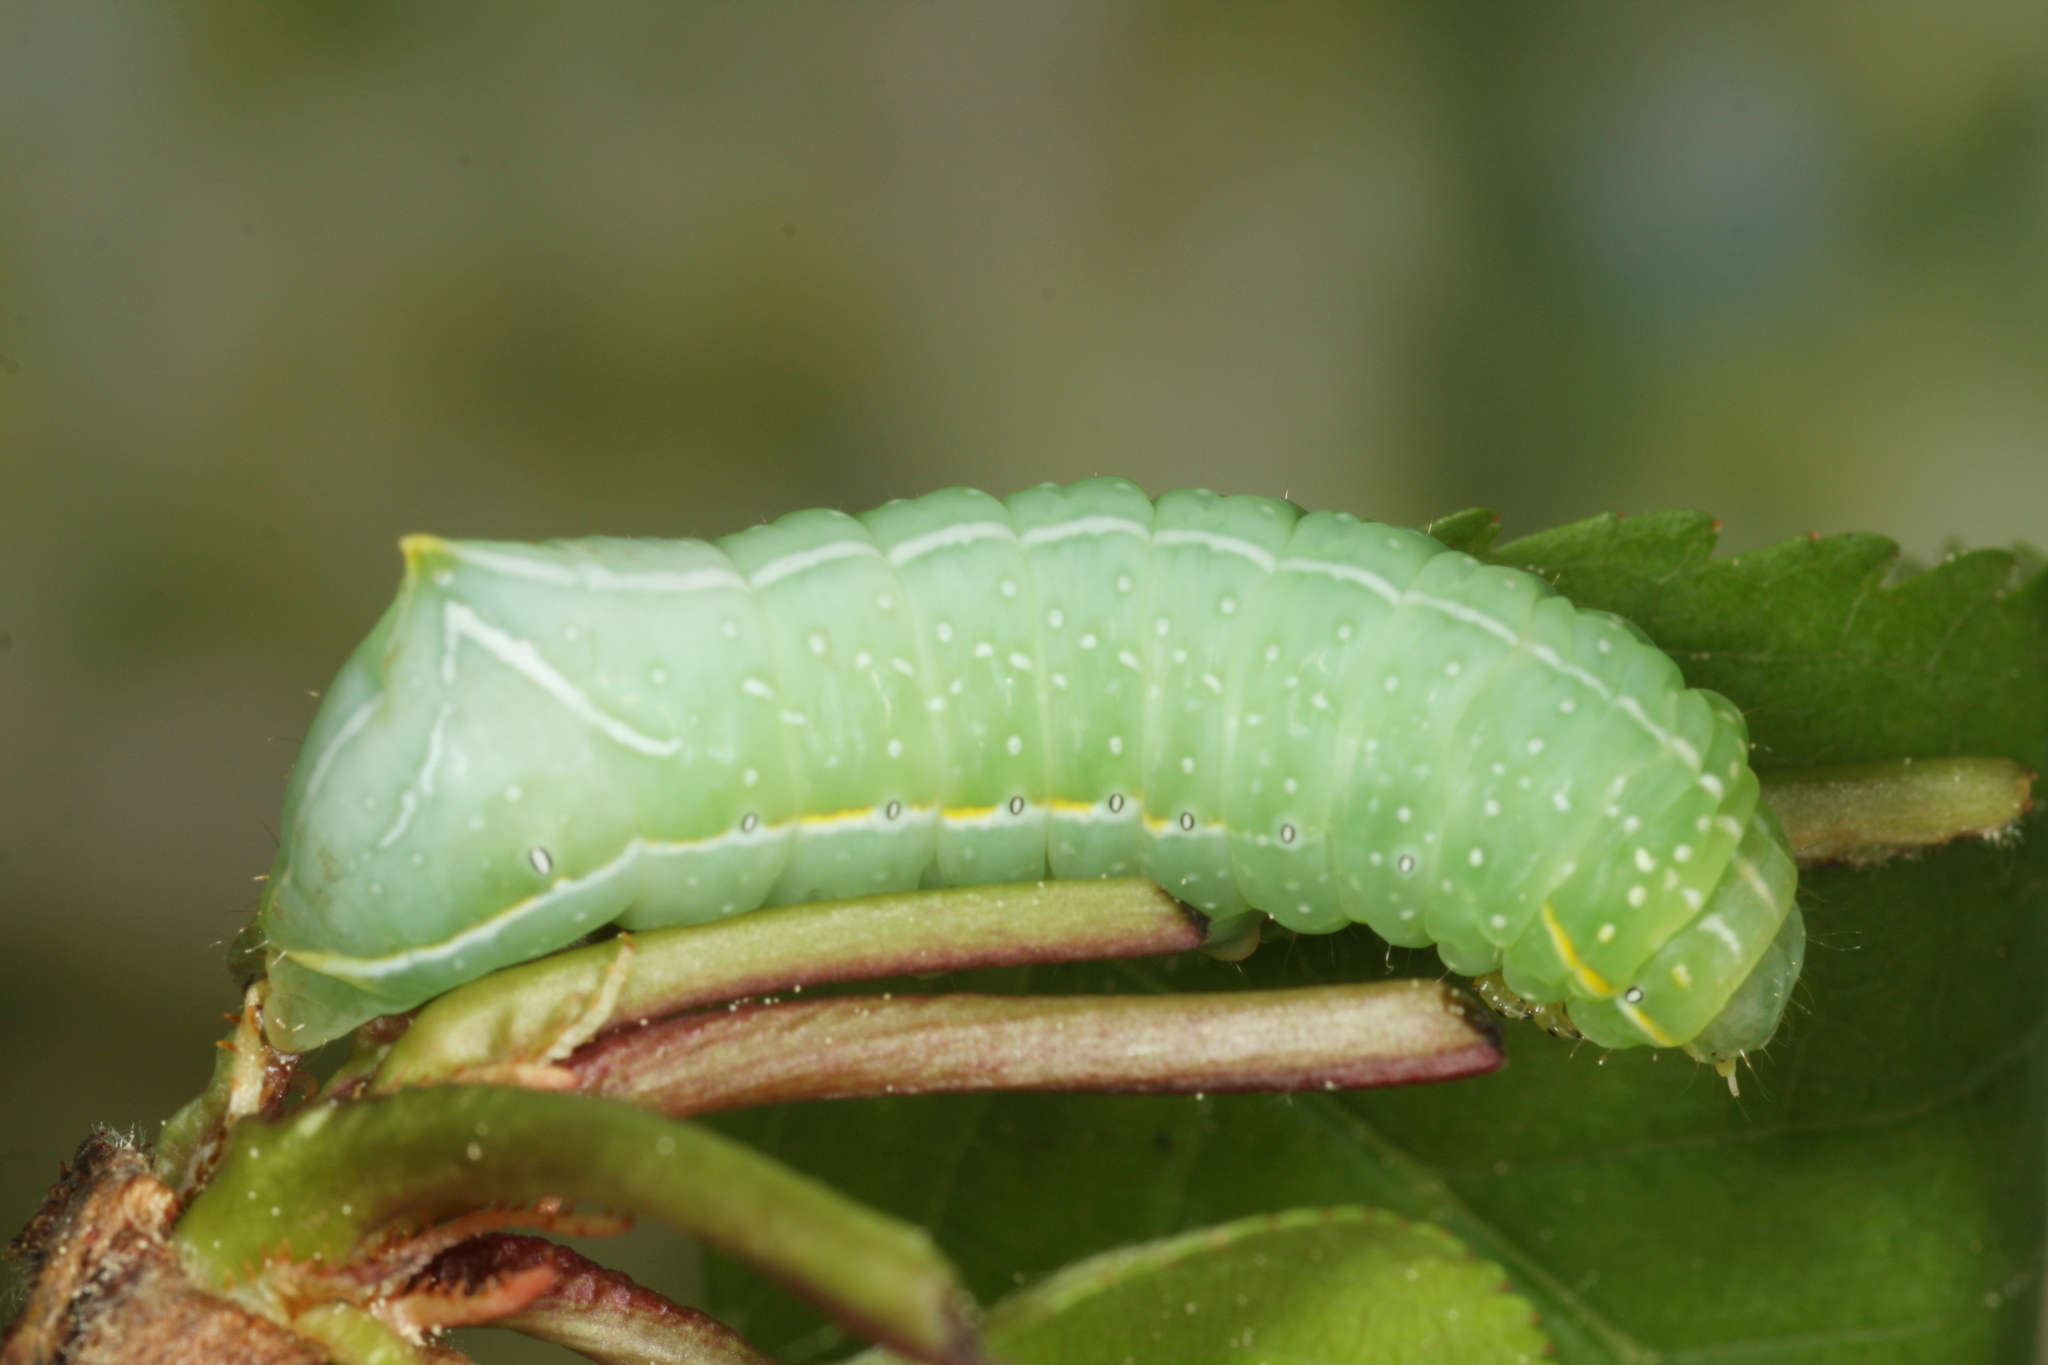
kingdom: Animalia
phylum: Arthropoda
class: Insecta
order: Lepidoptera
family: Noctuidae
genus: Amphipyra
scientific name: Amphipyra pyramidea
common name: Copper underwing
